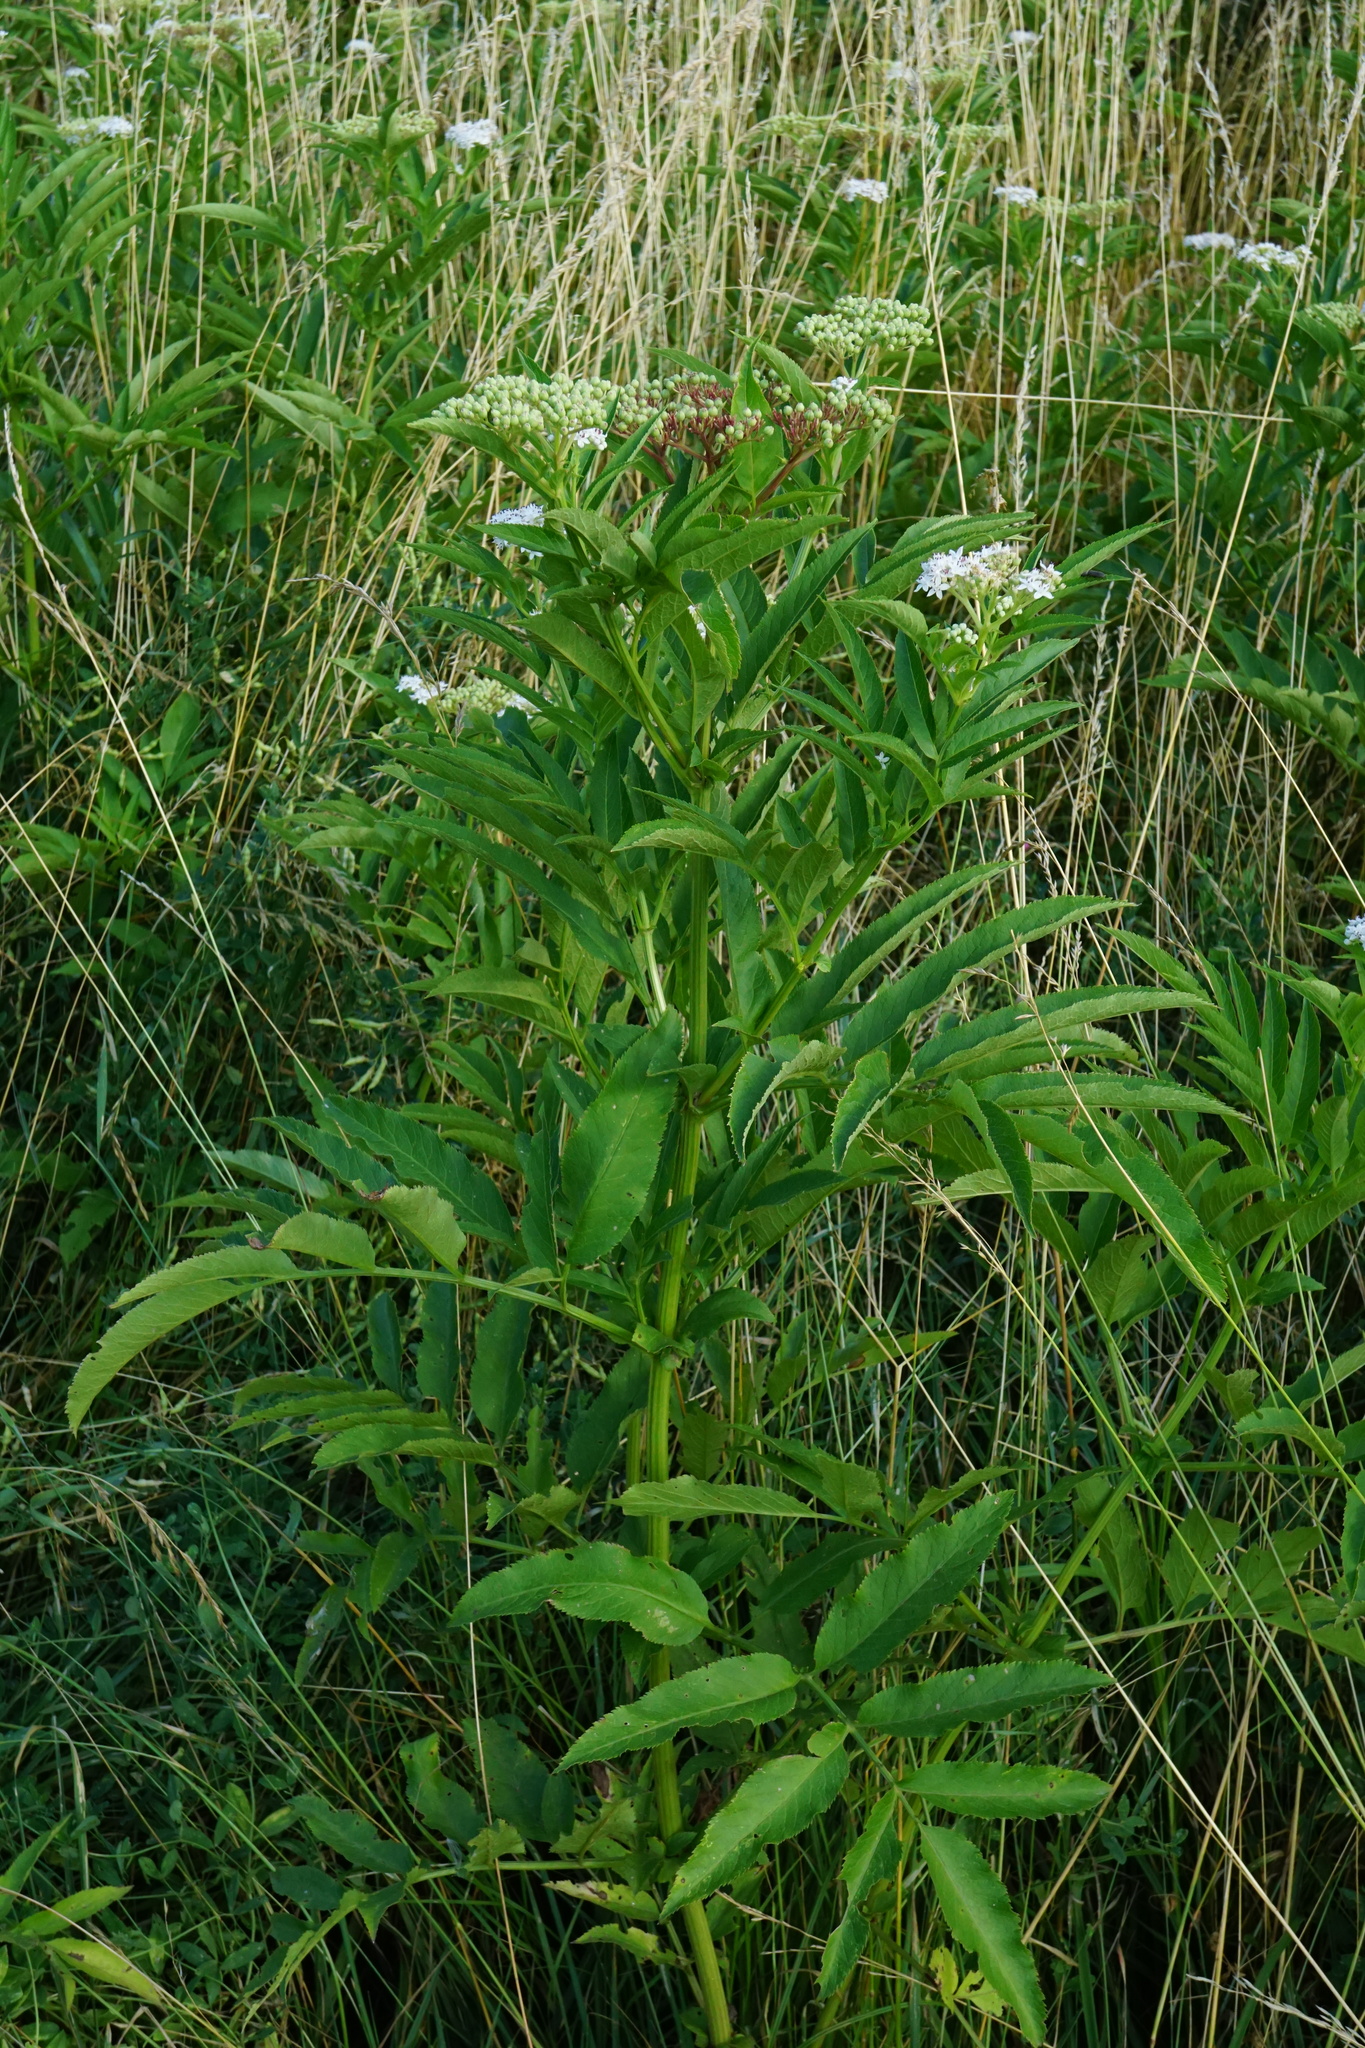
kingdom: Plantae
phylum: Tracheophyta
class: Magnoliopsida
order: Dipsacales
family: Viburnaceae
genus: Sambucus
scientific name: Sambucus ebulus
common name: Dwarf elder
